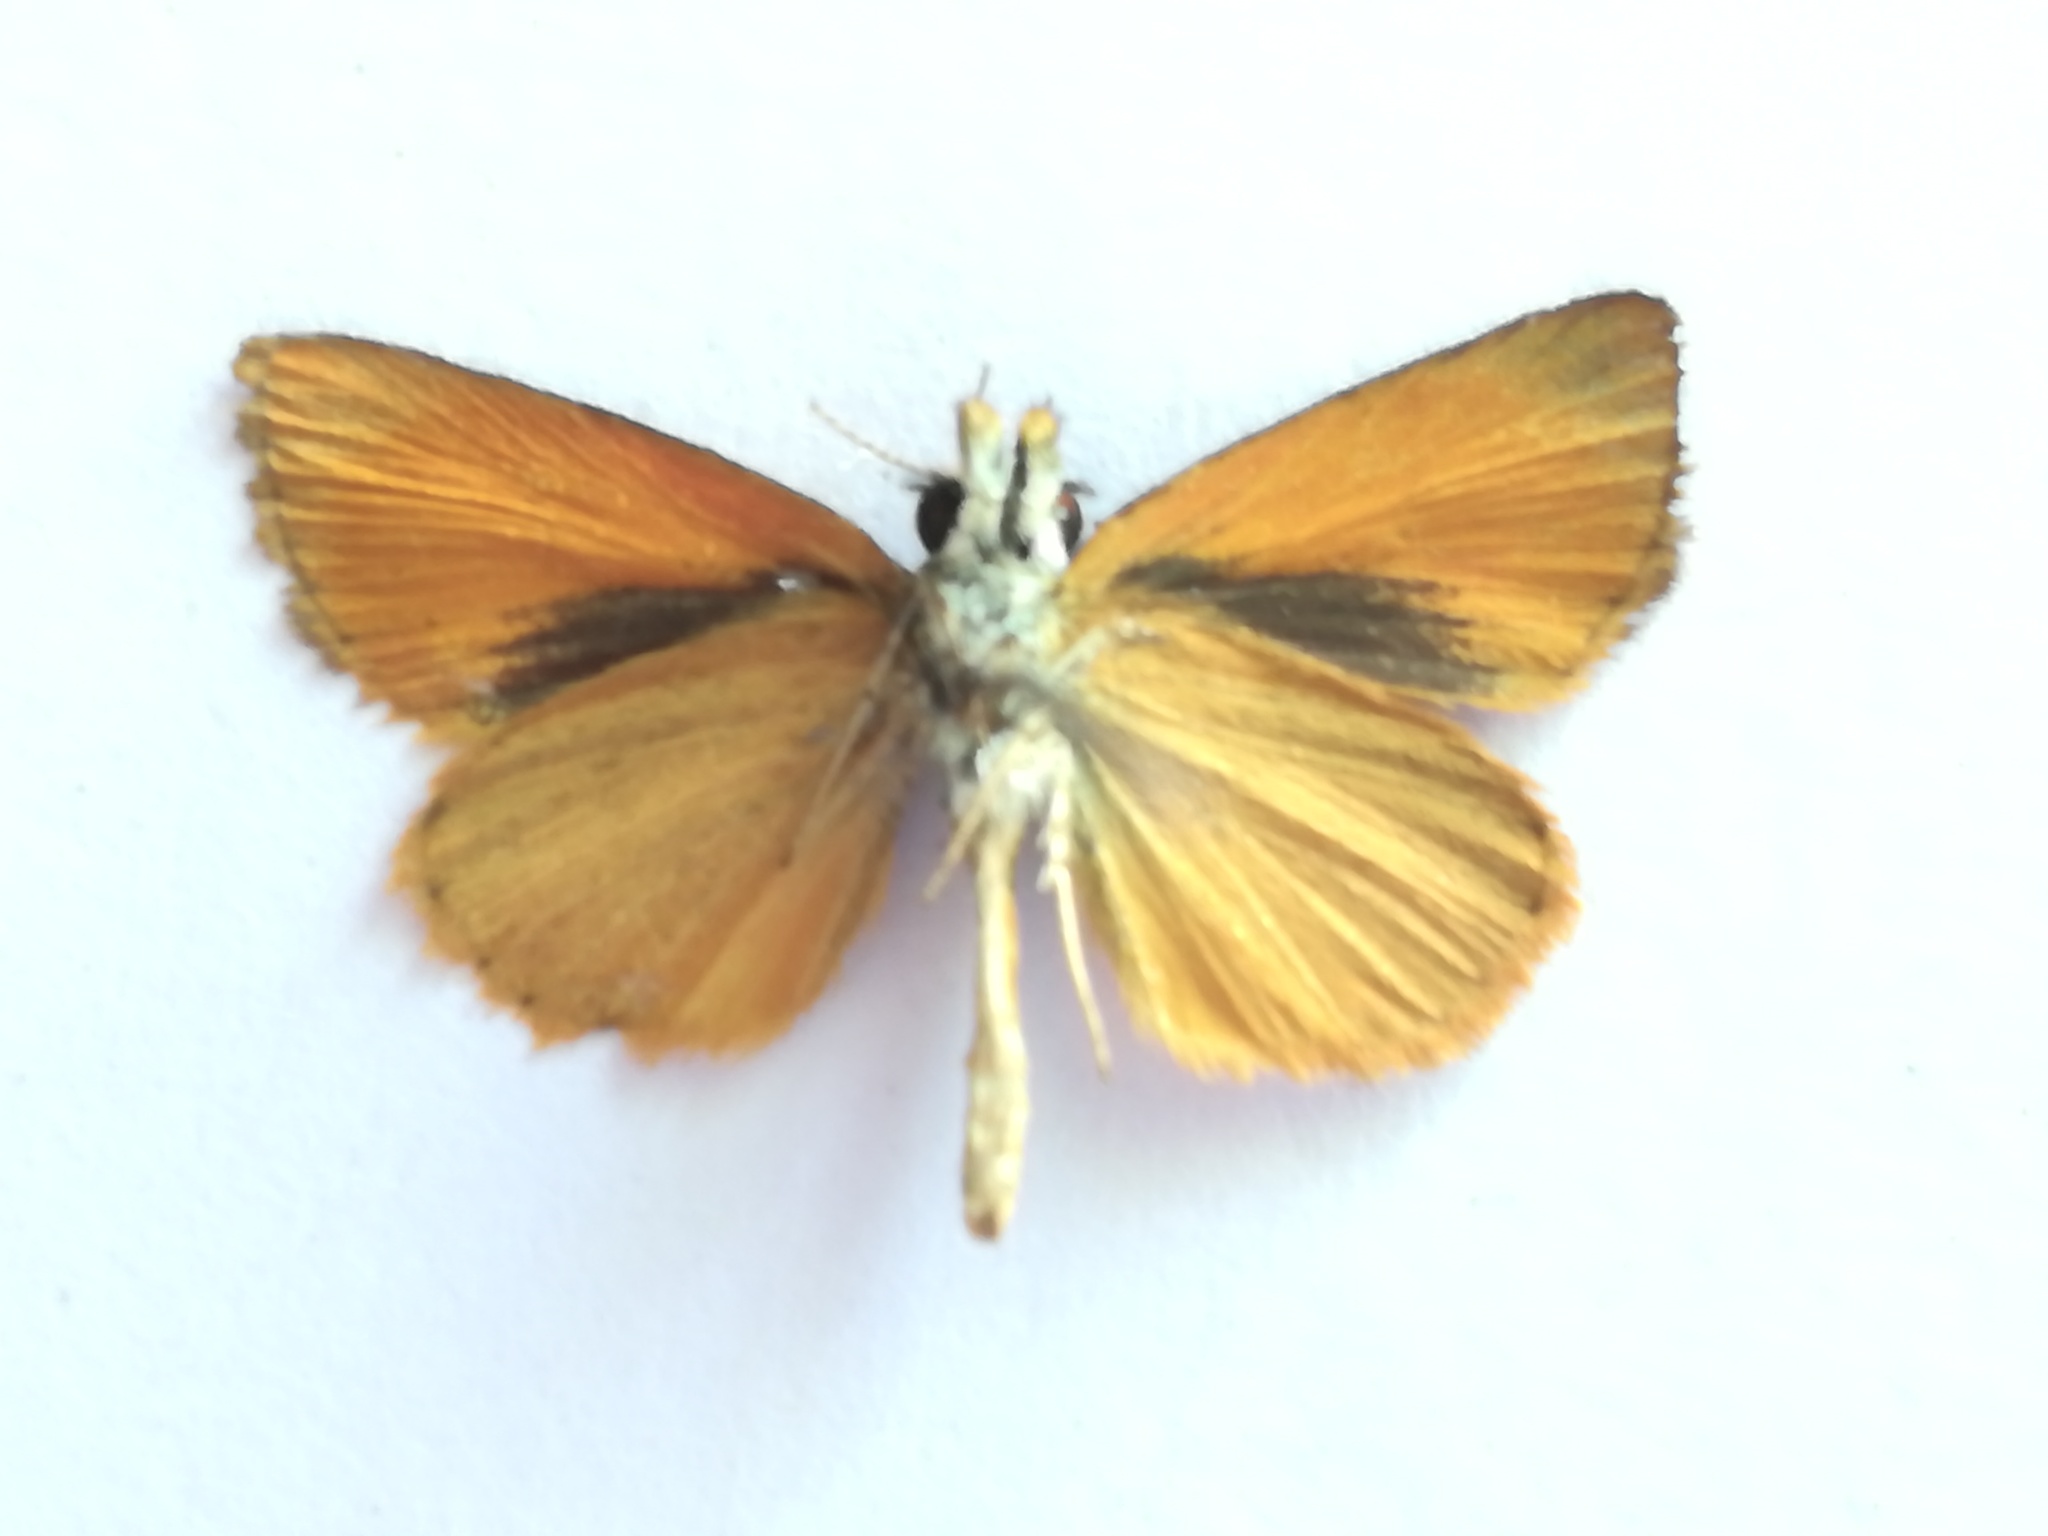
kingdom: Animalia
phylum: Arthropoda
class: Insecta
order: Lepidoptera
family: Hesperiidae
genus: Ancyloxypha
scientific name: Ancyloxypha arene
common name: Tropical least skipper
